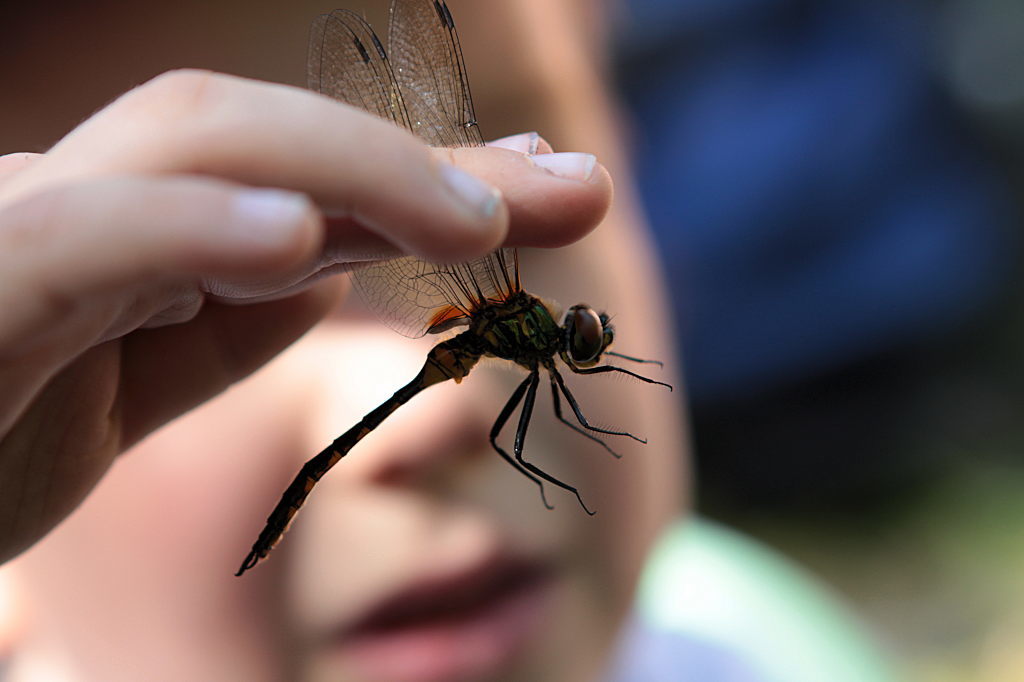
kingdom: Animalia
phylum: Arthropoda
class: Insecta
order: Odonata
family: Corduliidae
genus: Somatochlora
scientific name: Somatochlora flavomaculata
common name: Yellow-spotted emerald
